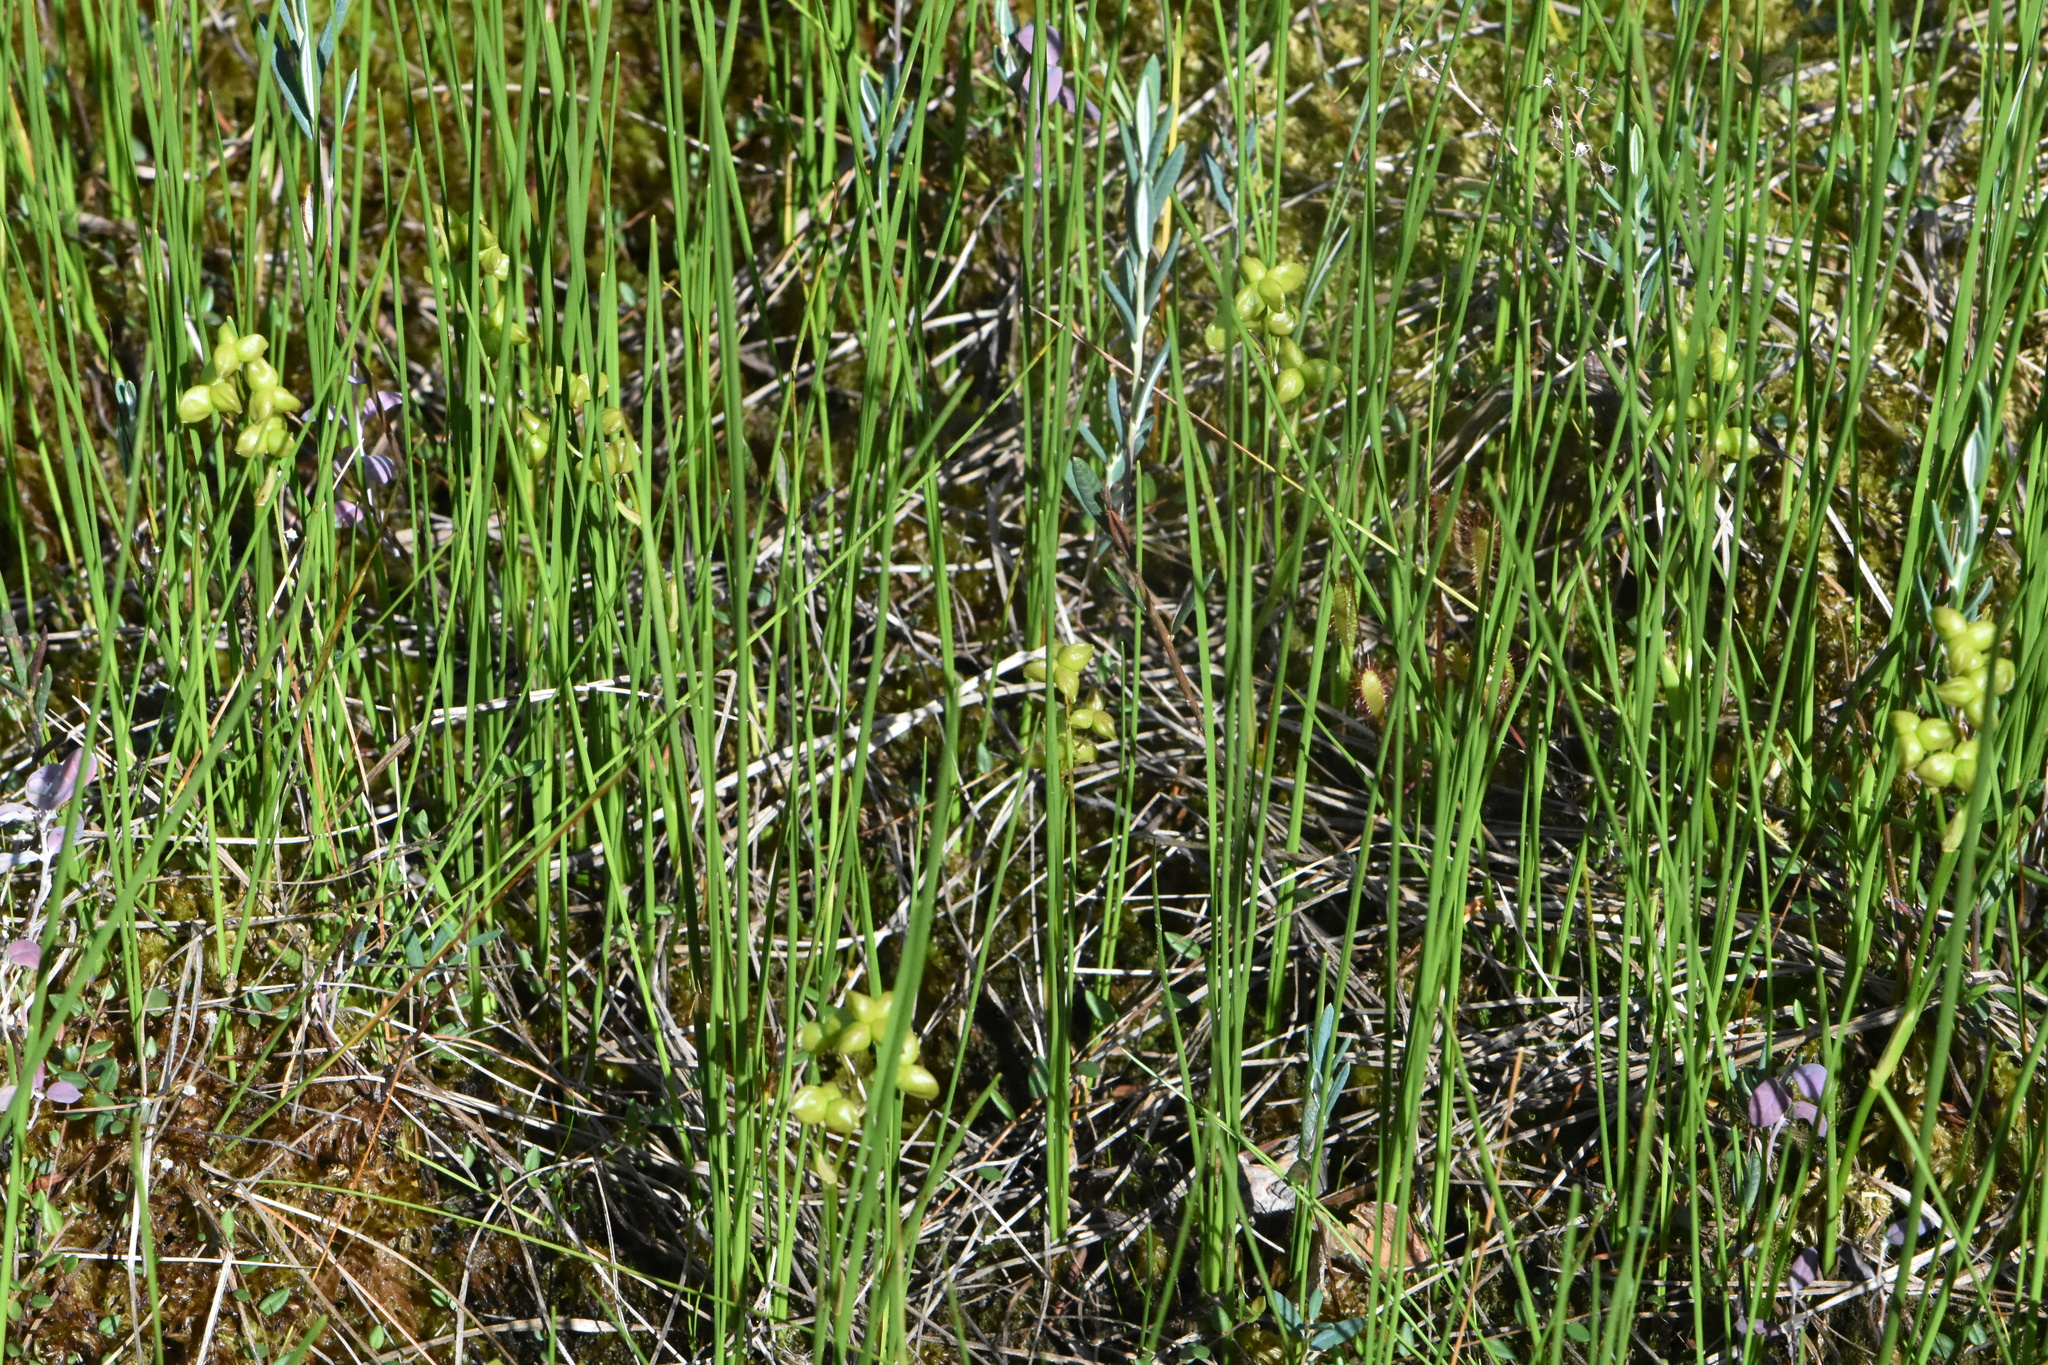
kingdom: Plantae
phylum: Tracheophyta
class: Liliopsida
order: Alismatales
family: Scheuchzeriaceae
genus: Scheuchzeria
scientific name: Scheuchzeria palustris
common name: Rannoch-rush
